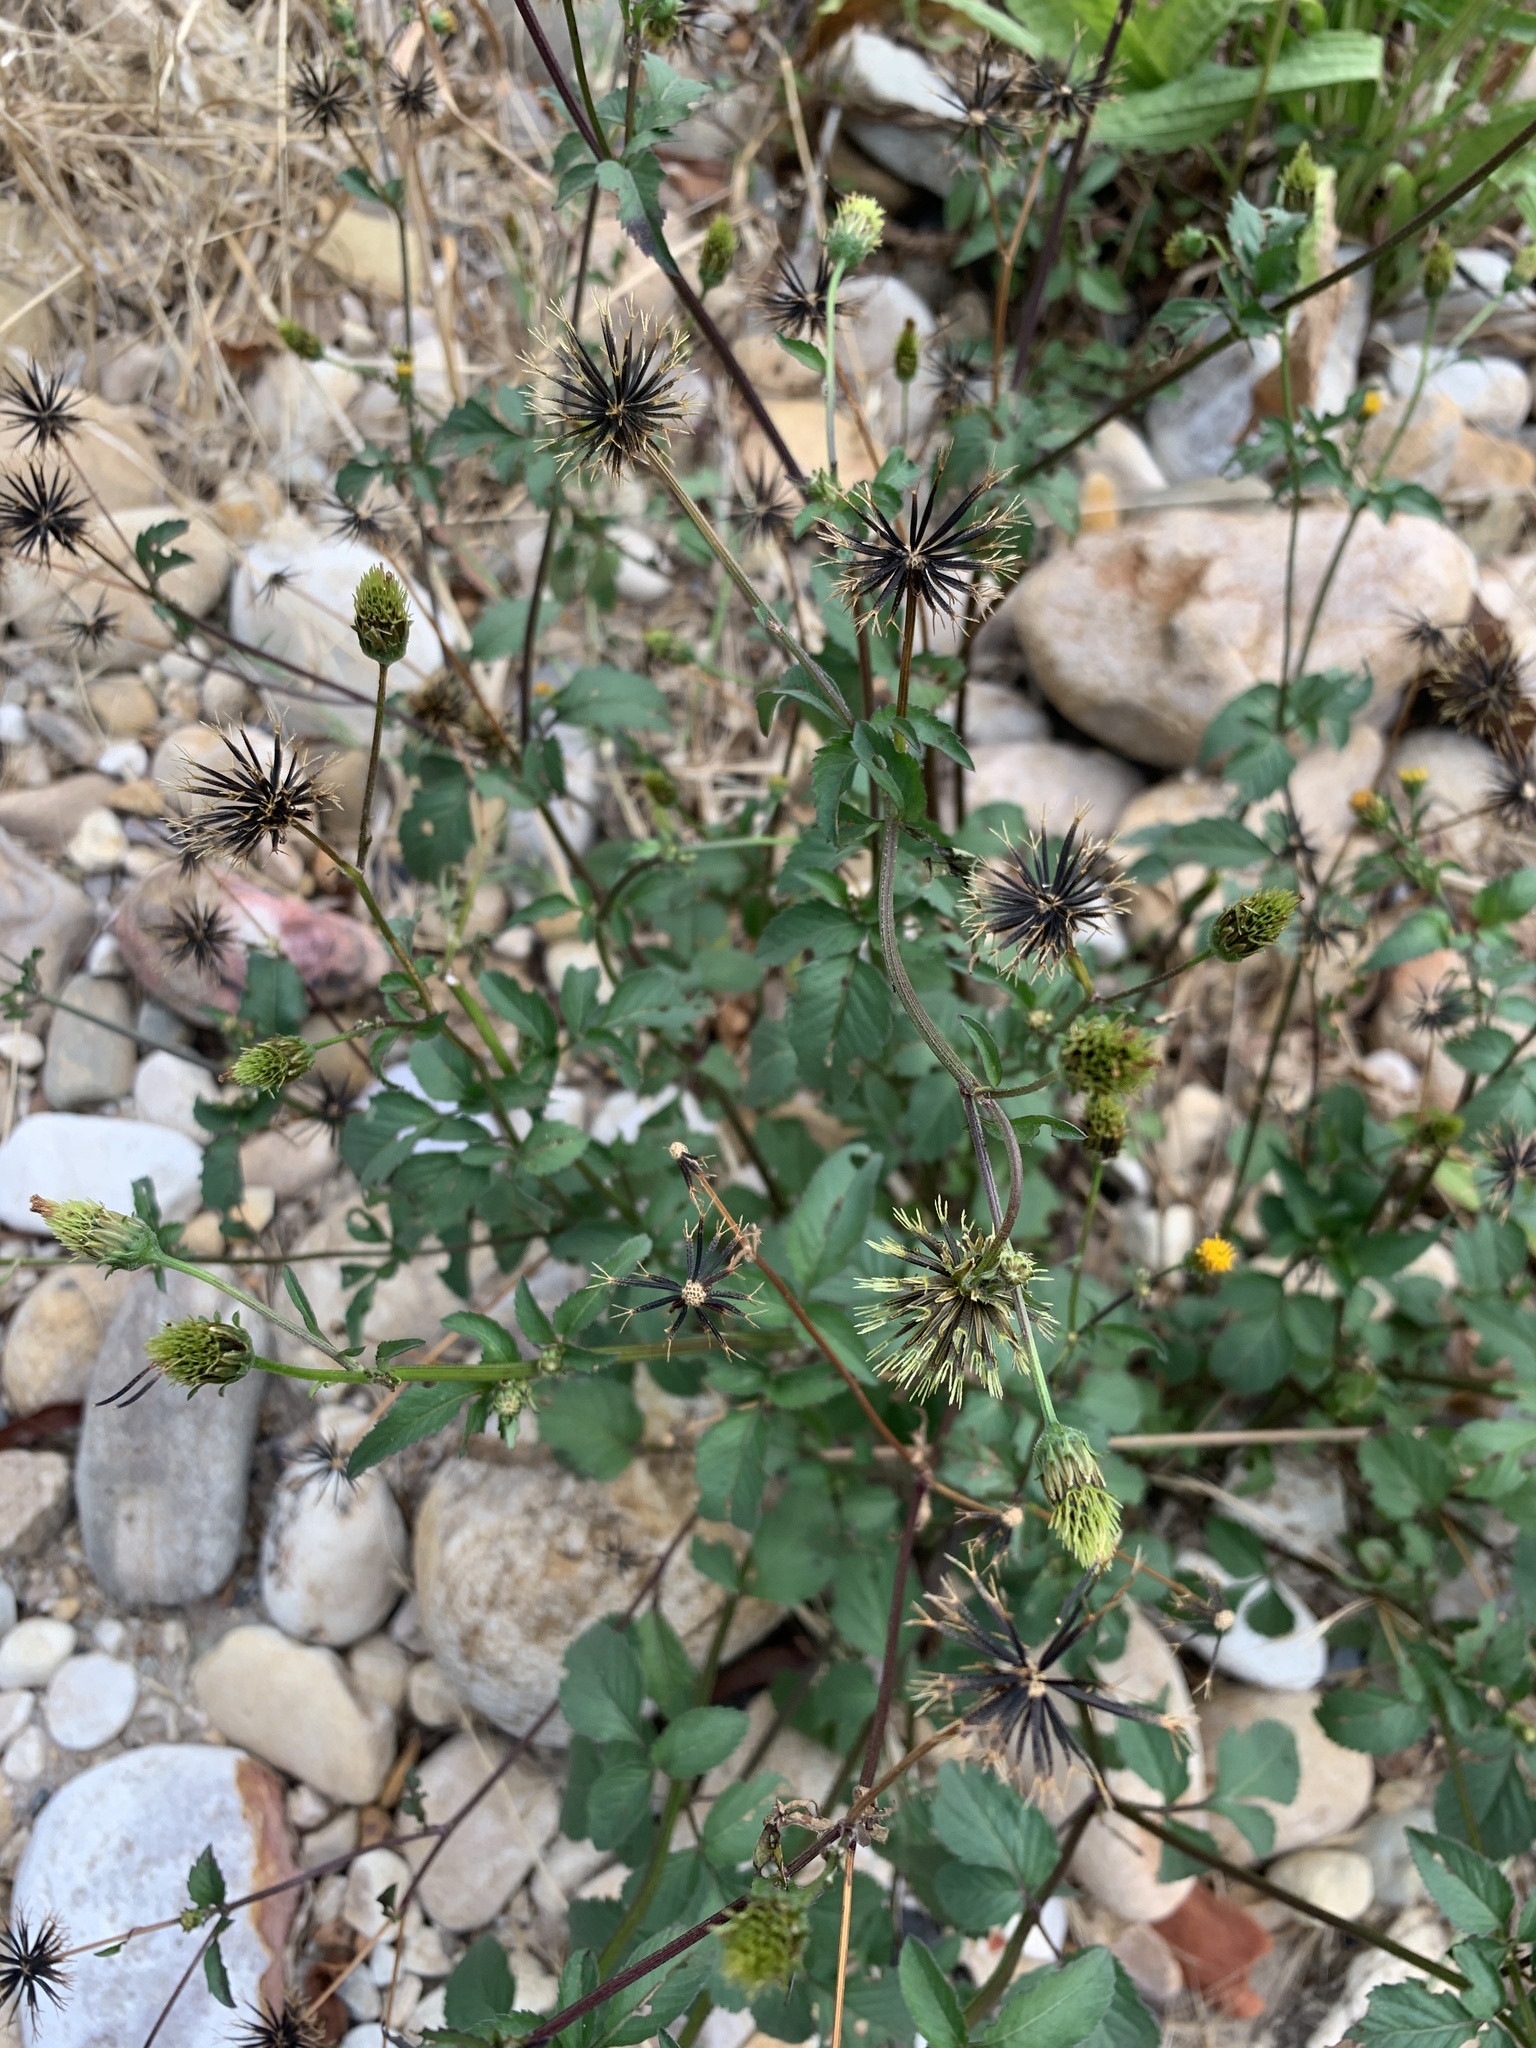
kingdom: Plantae
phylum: Tracheophyta
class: Magnoliopsida
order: Asterales
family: Asteraceae
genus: Bidens
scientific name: Bidens pilosa
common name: Black-jack
